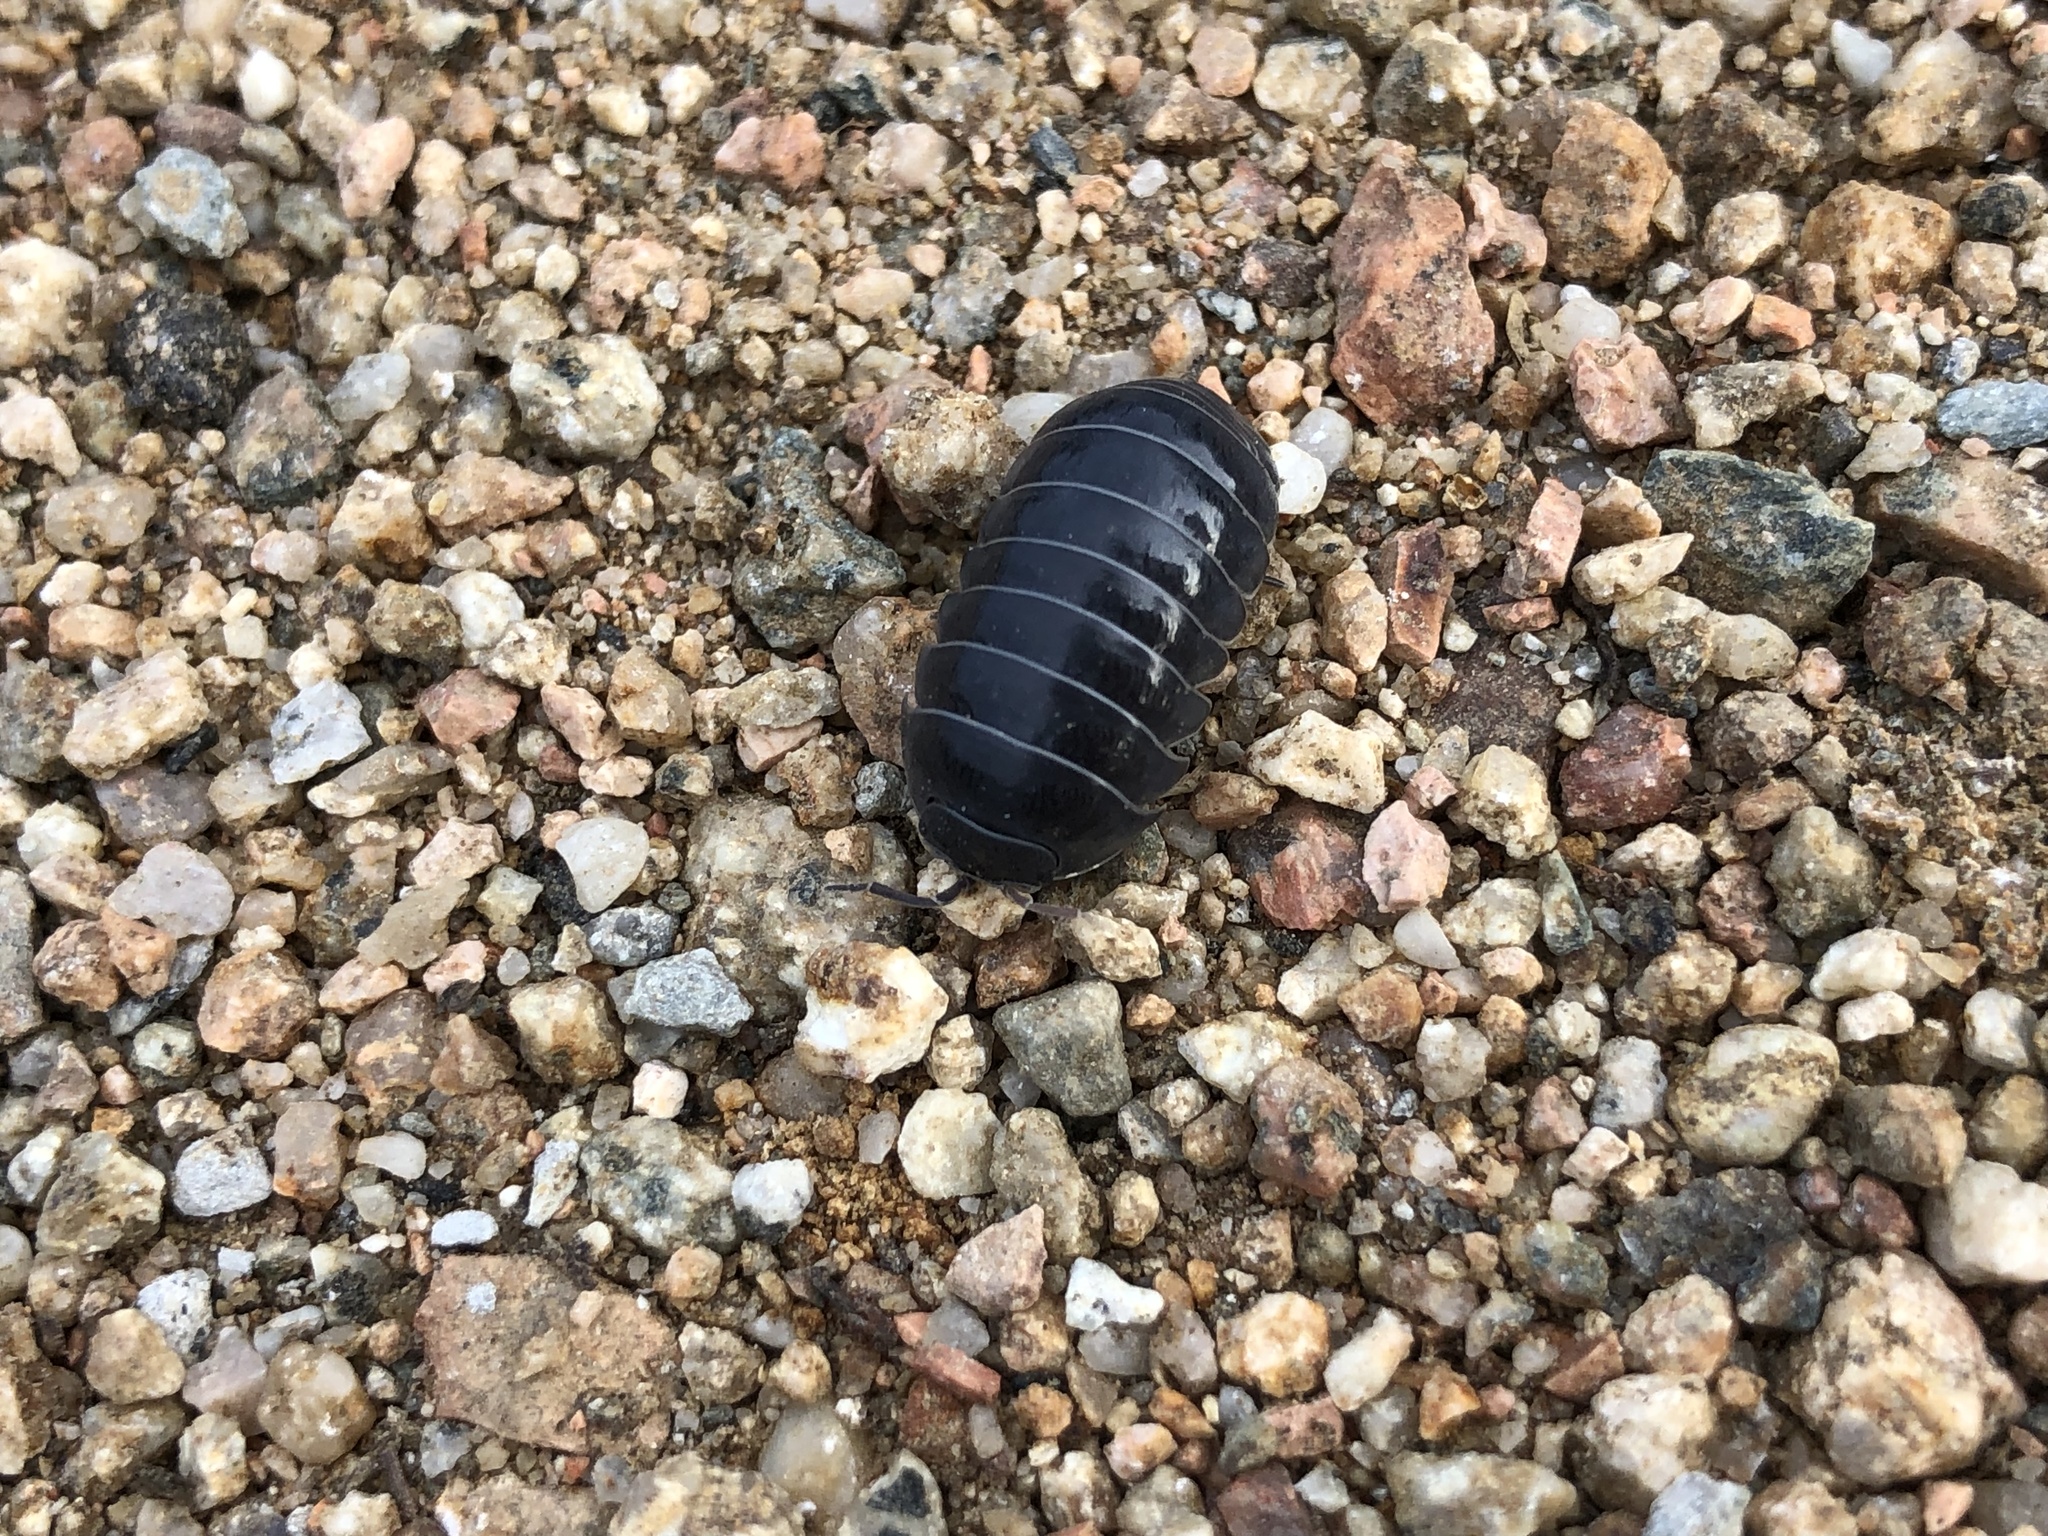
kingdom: Animalia
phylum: Arthropoda
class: Malacostraca
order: Isopoda
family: Armadillidiidae
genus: Armadillidium
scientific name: Armadillidium vulgare
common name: Common pill woodlouse
